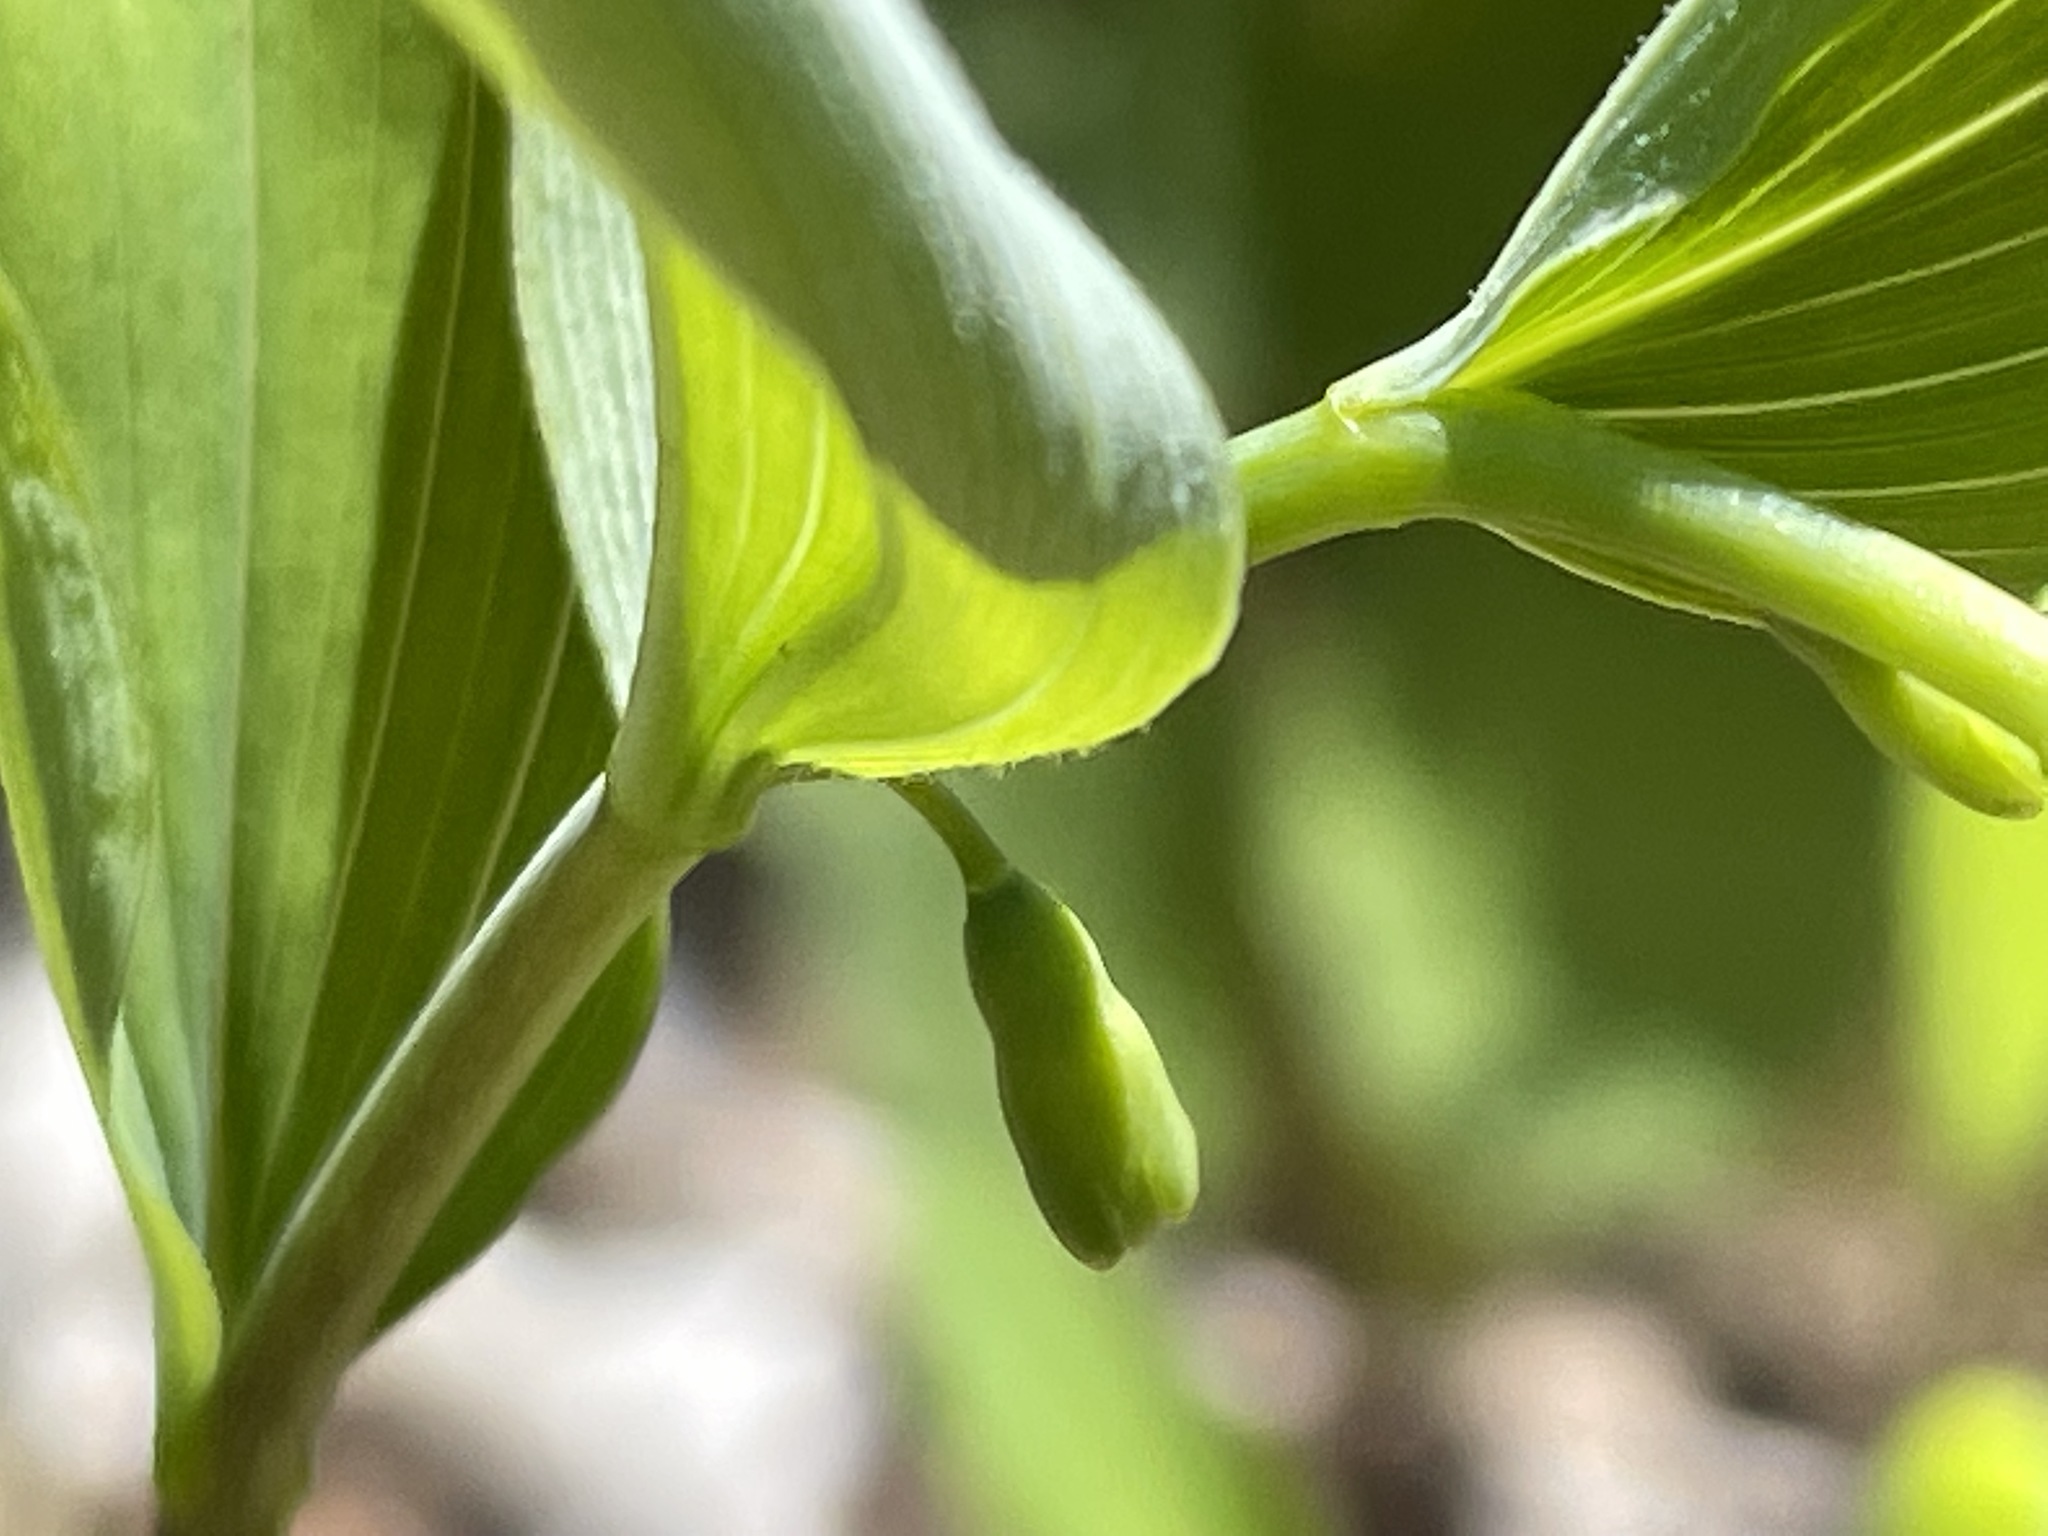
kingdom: Plantae
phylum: Tracheophyta
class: Liliopsida
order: Asparagales
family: Asparagaceae
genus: Polygonatum
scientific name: Polygonatum pubescens
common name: Downy solomon's seal
